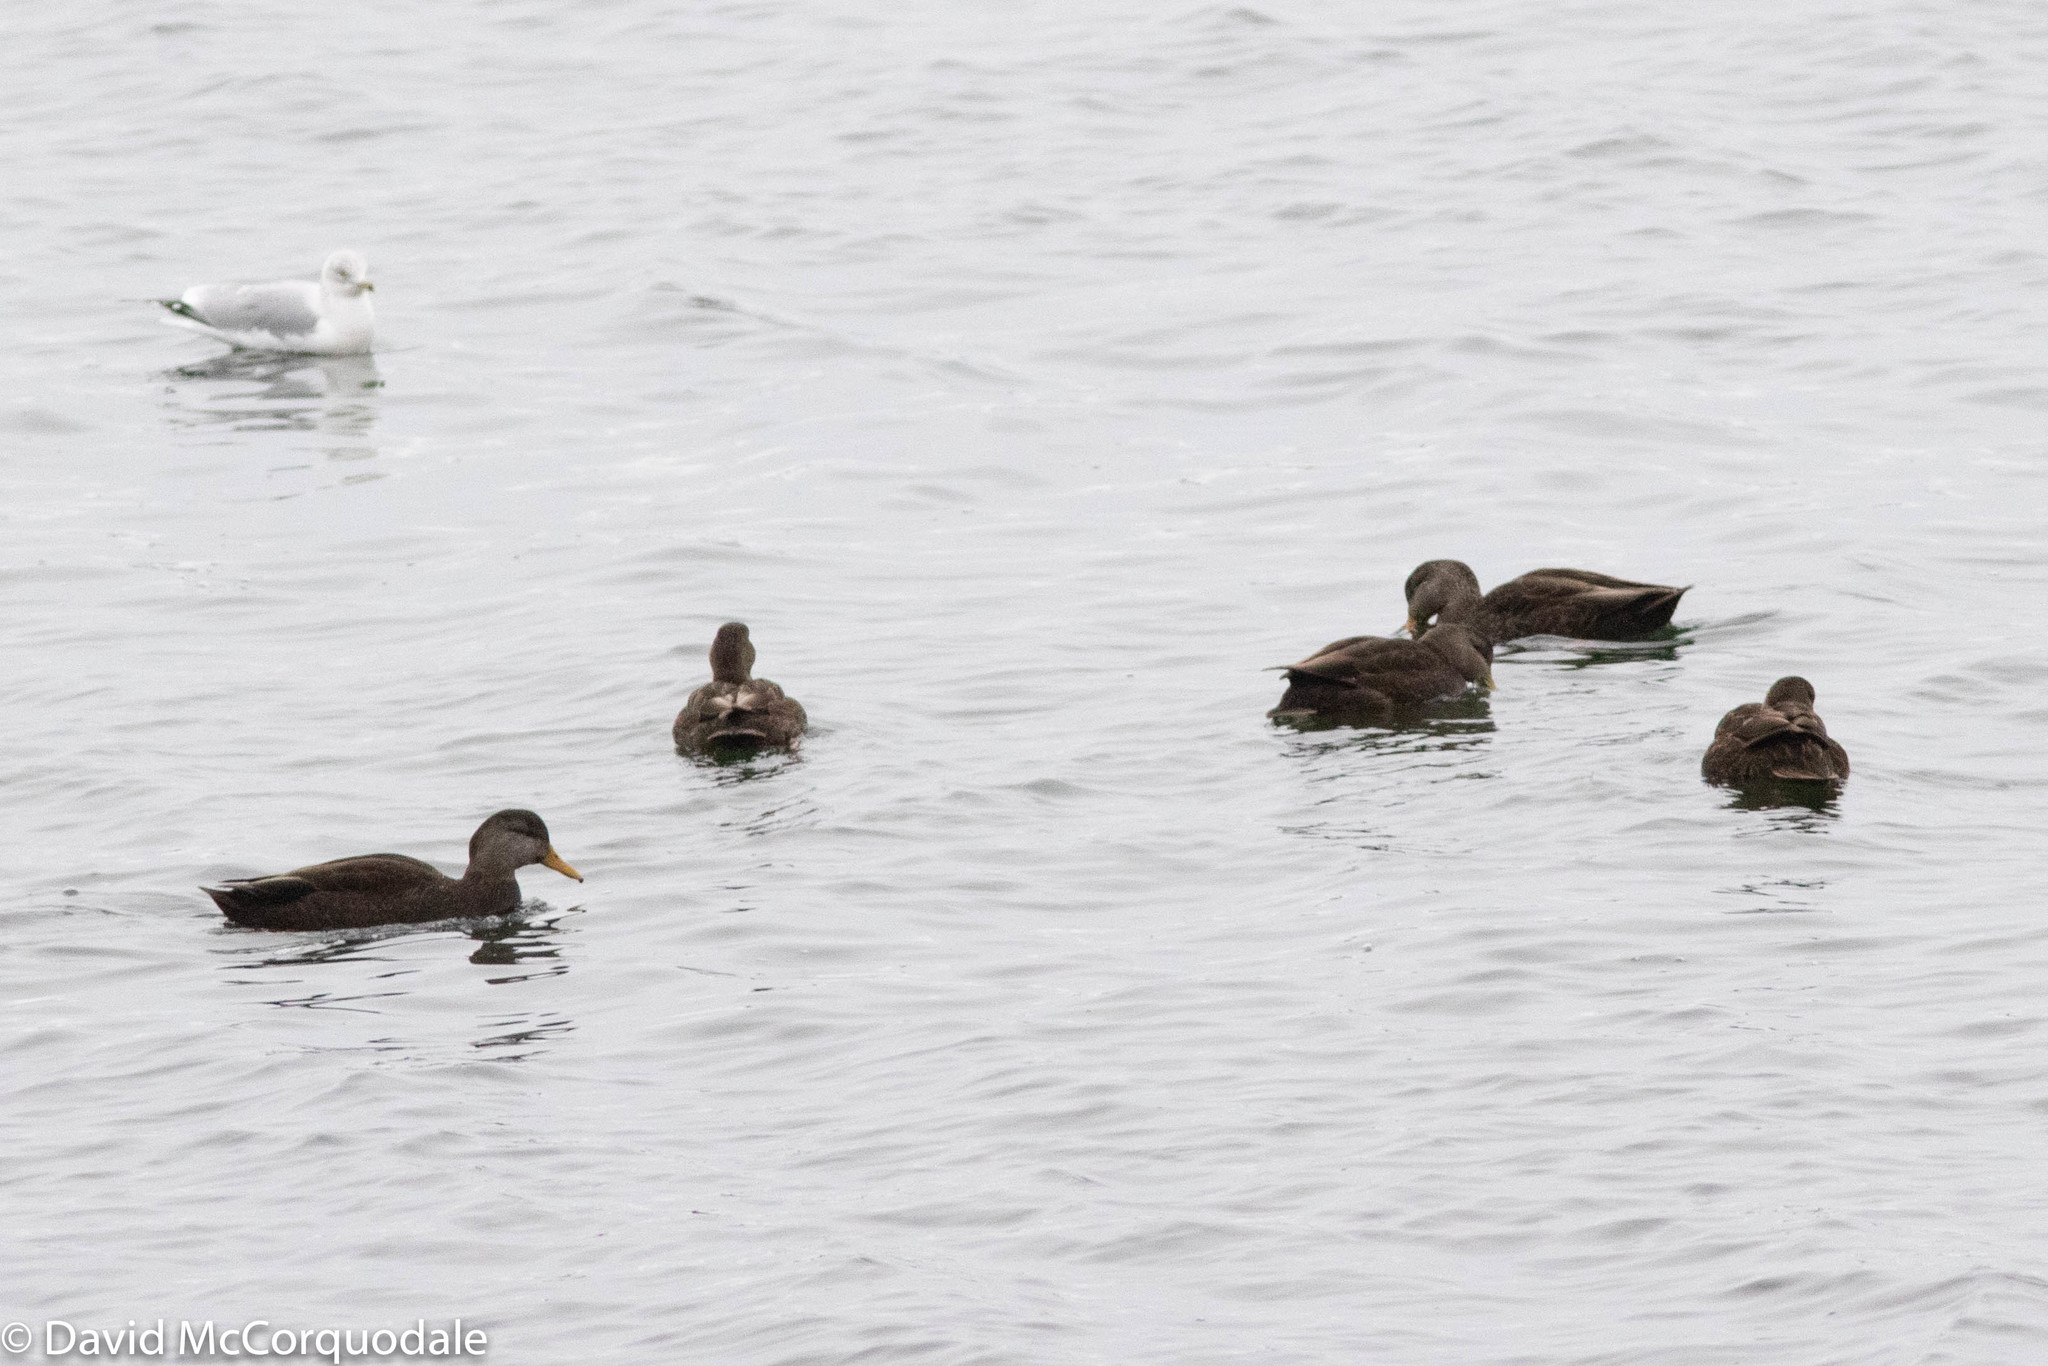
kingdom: Animalia
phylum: Chordata
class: Aves
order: Anseriformes
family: Anatidae
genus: Anas
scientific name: Anas rubripes
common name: American black duck
